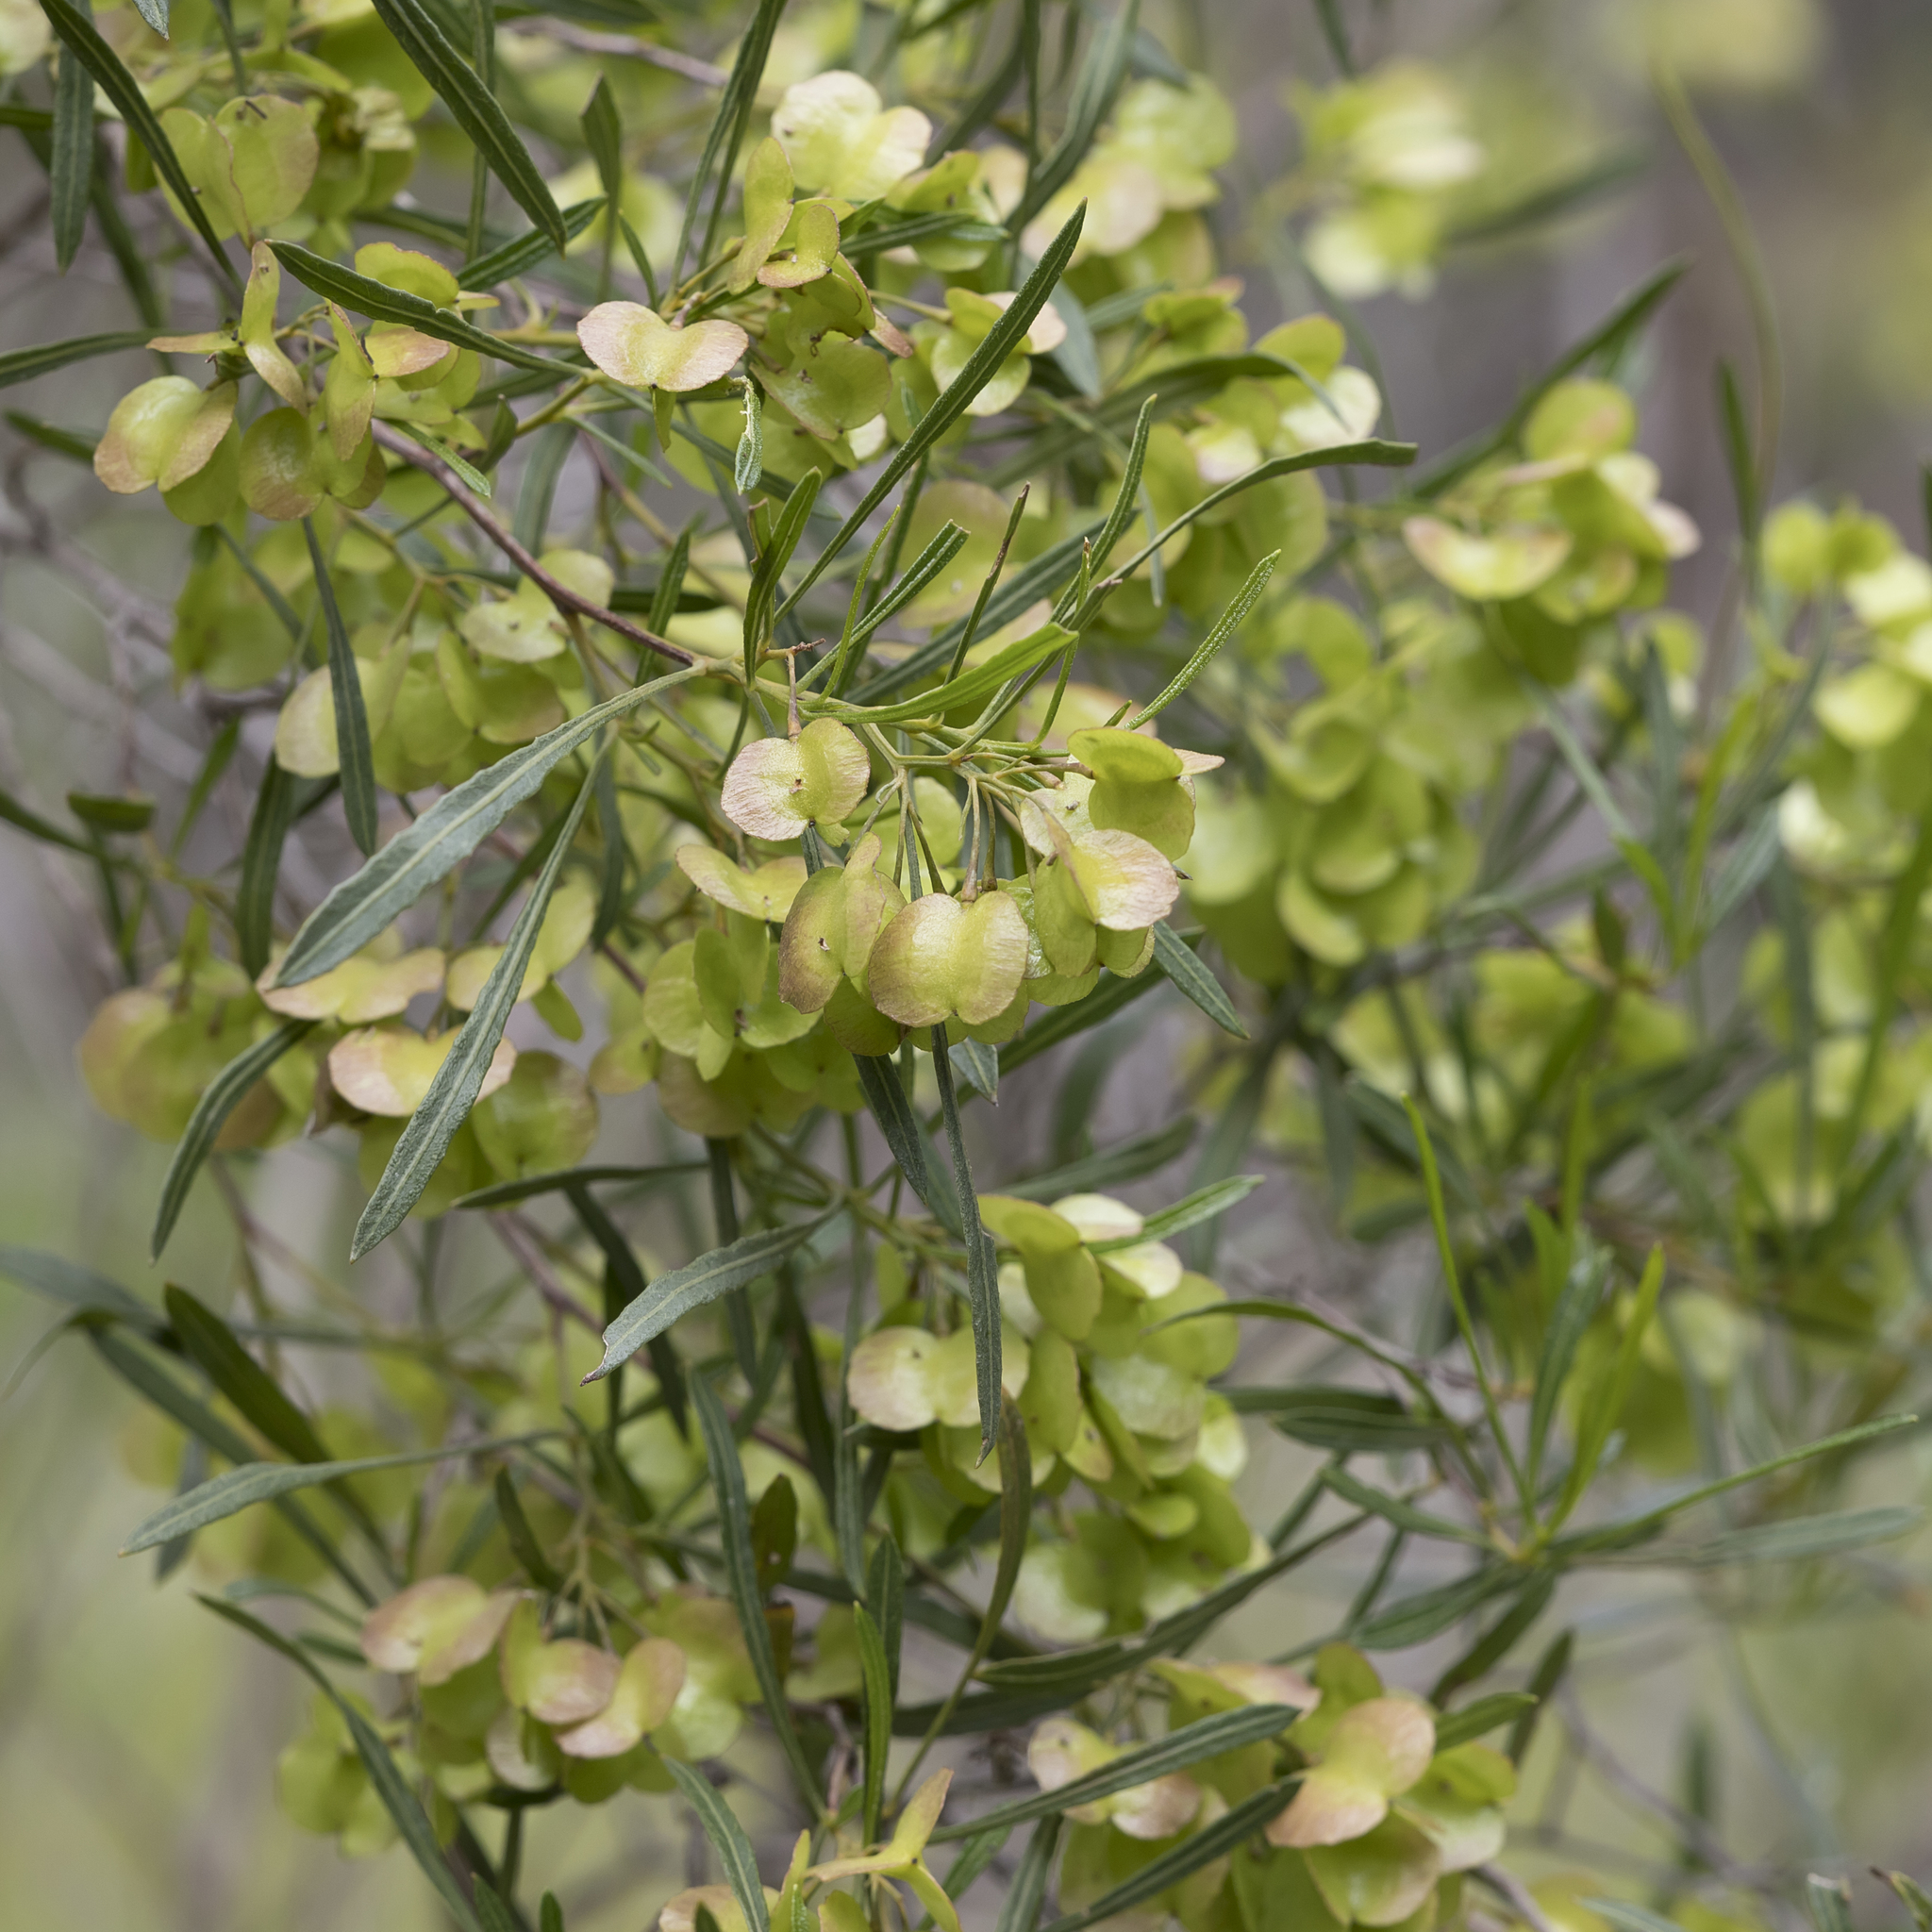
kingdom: Plantae
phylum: Tracheophyta
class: Magnoliopsida
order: Sapindales
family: Sapindaceae
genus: Dodonaea
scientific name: Dodonaea viscosa
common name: Hopbush
